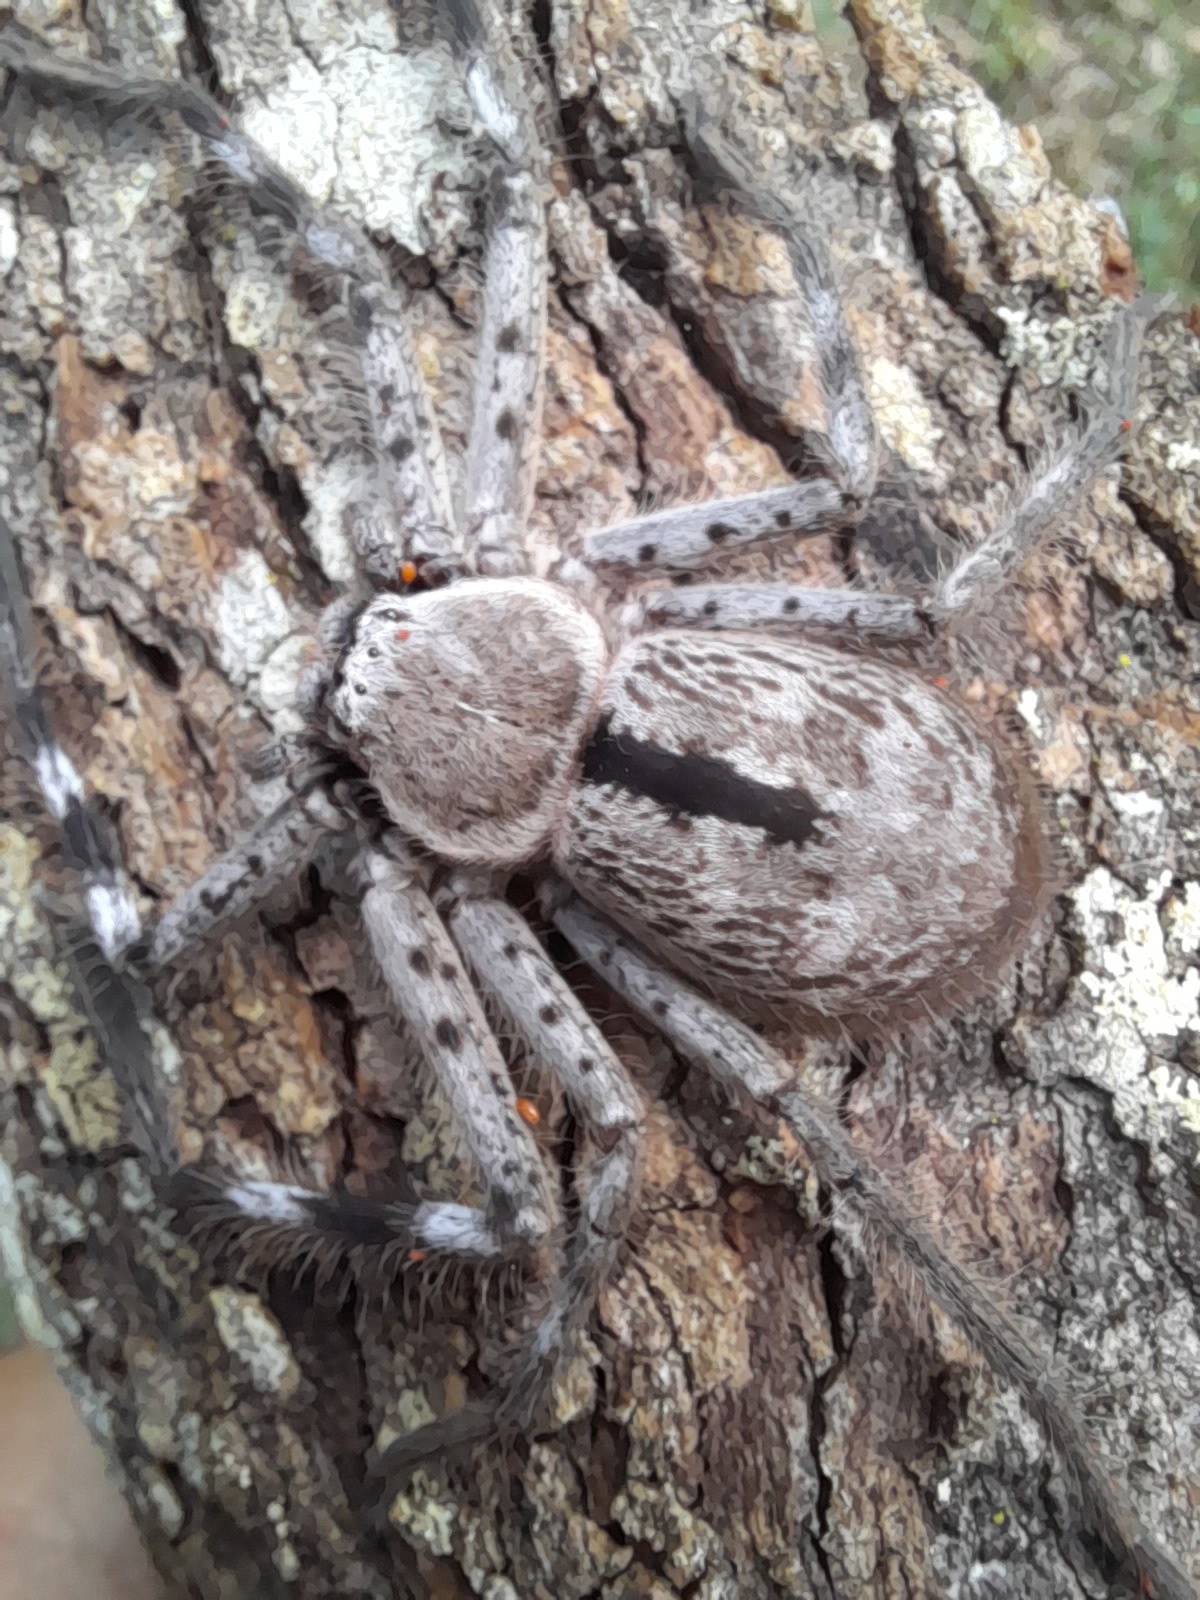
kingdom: Animalia
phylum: Arthropoda
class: Arachnida
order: Araneae
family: Sparassidae
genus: Holconia
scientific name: Holconia immanis
